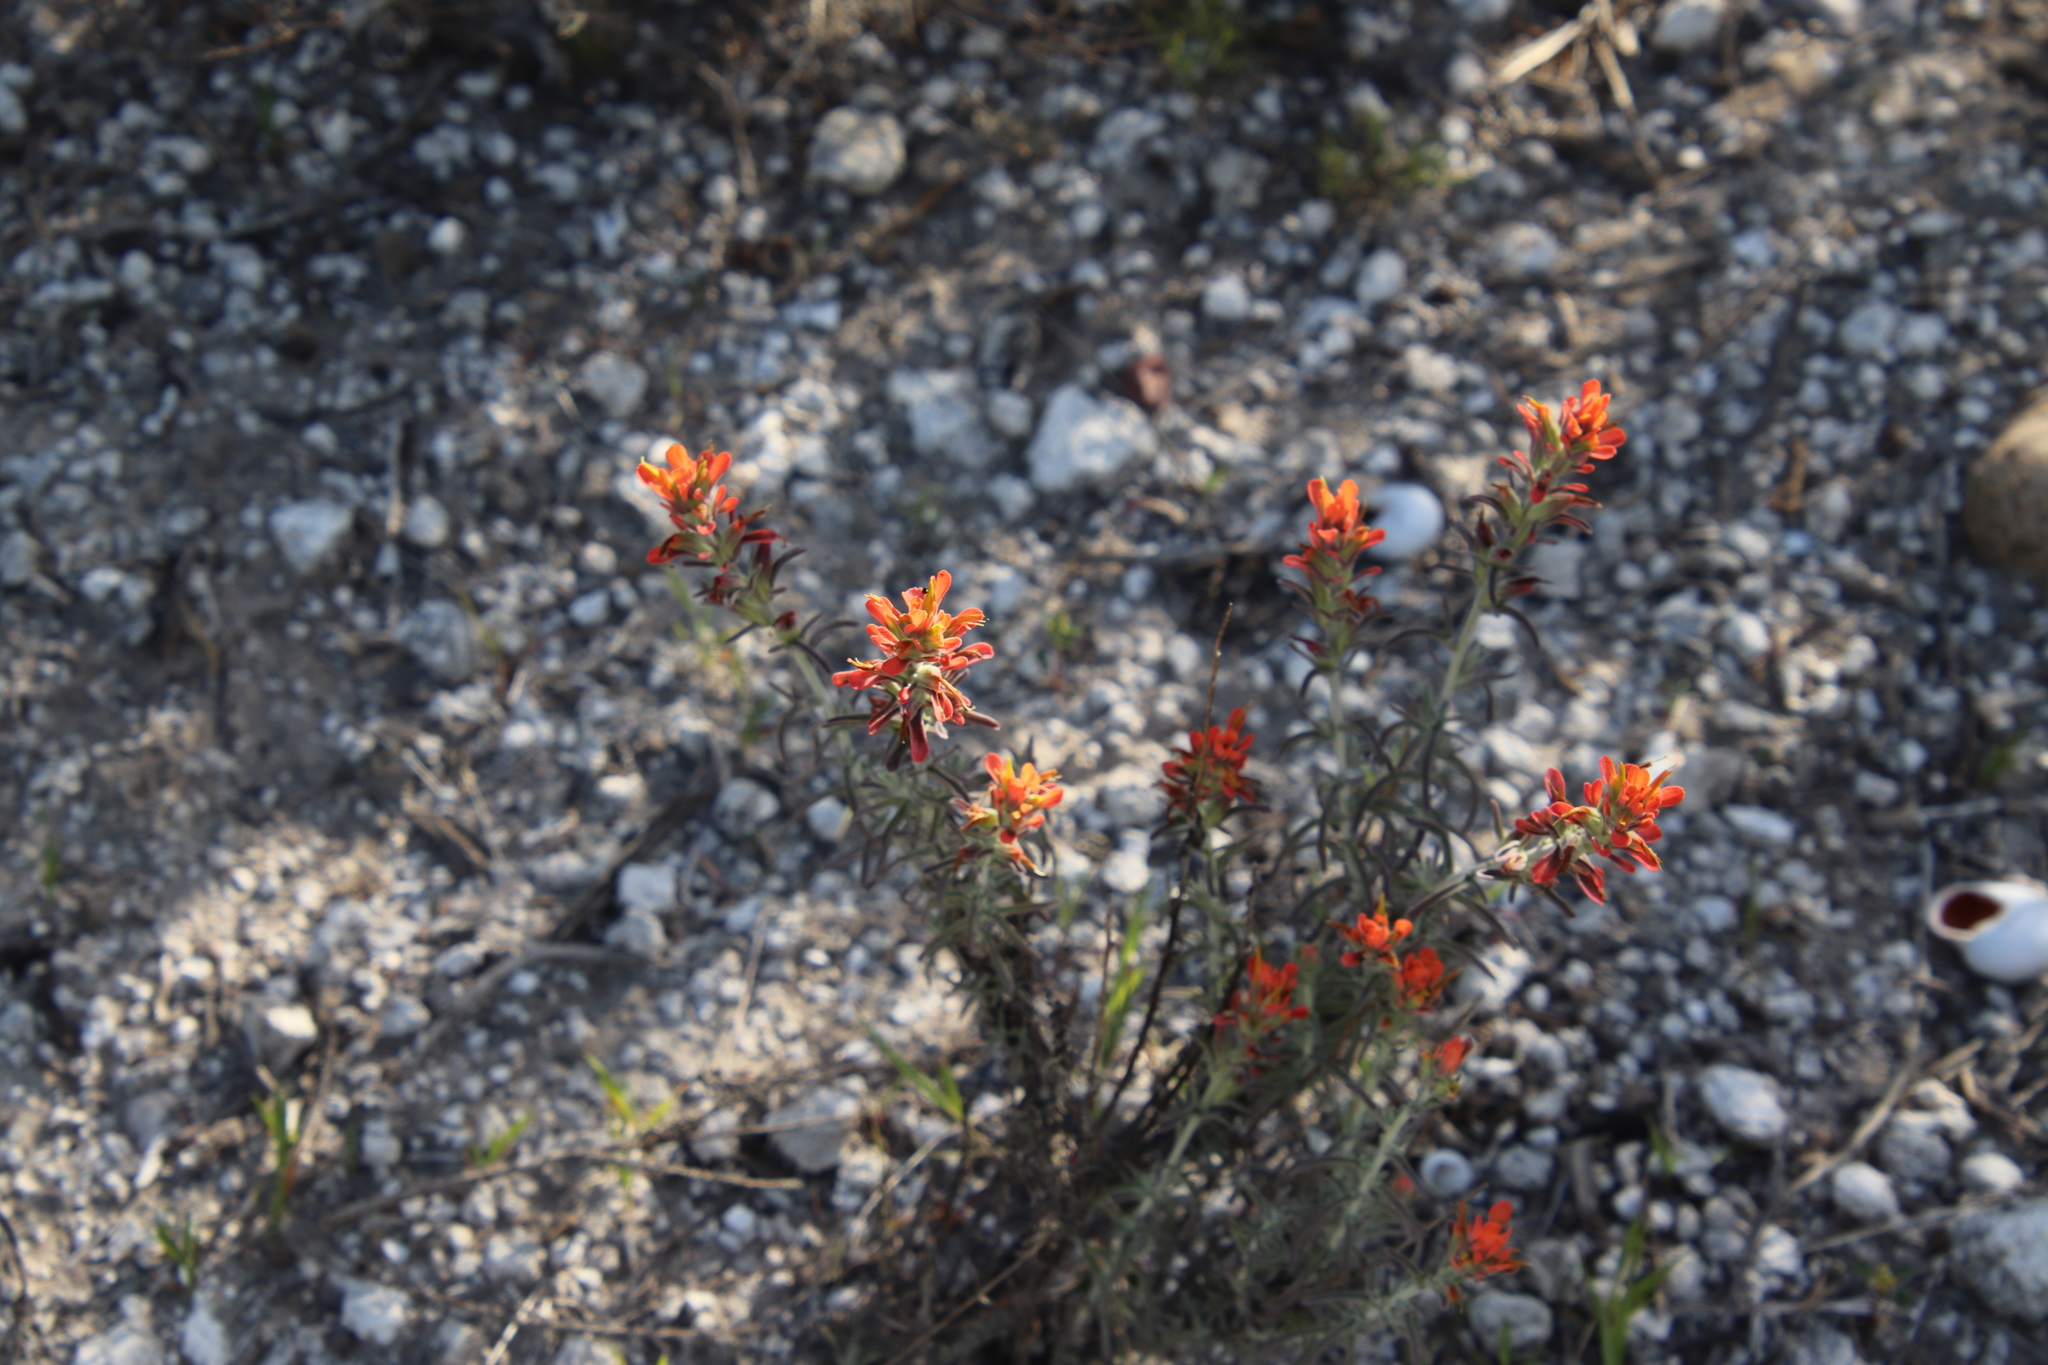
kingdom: Plantae
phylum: Tracheophyta
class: Magnoliopsida
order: Lamiales
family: Orobanchaceae
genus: Castilleja
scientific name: Castilleja foliolosa
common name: Woolly indian paintbrush
